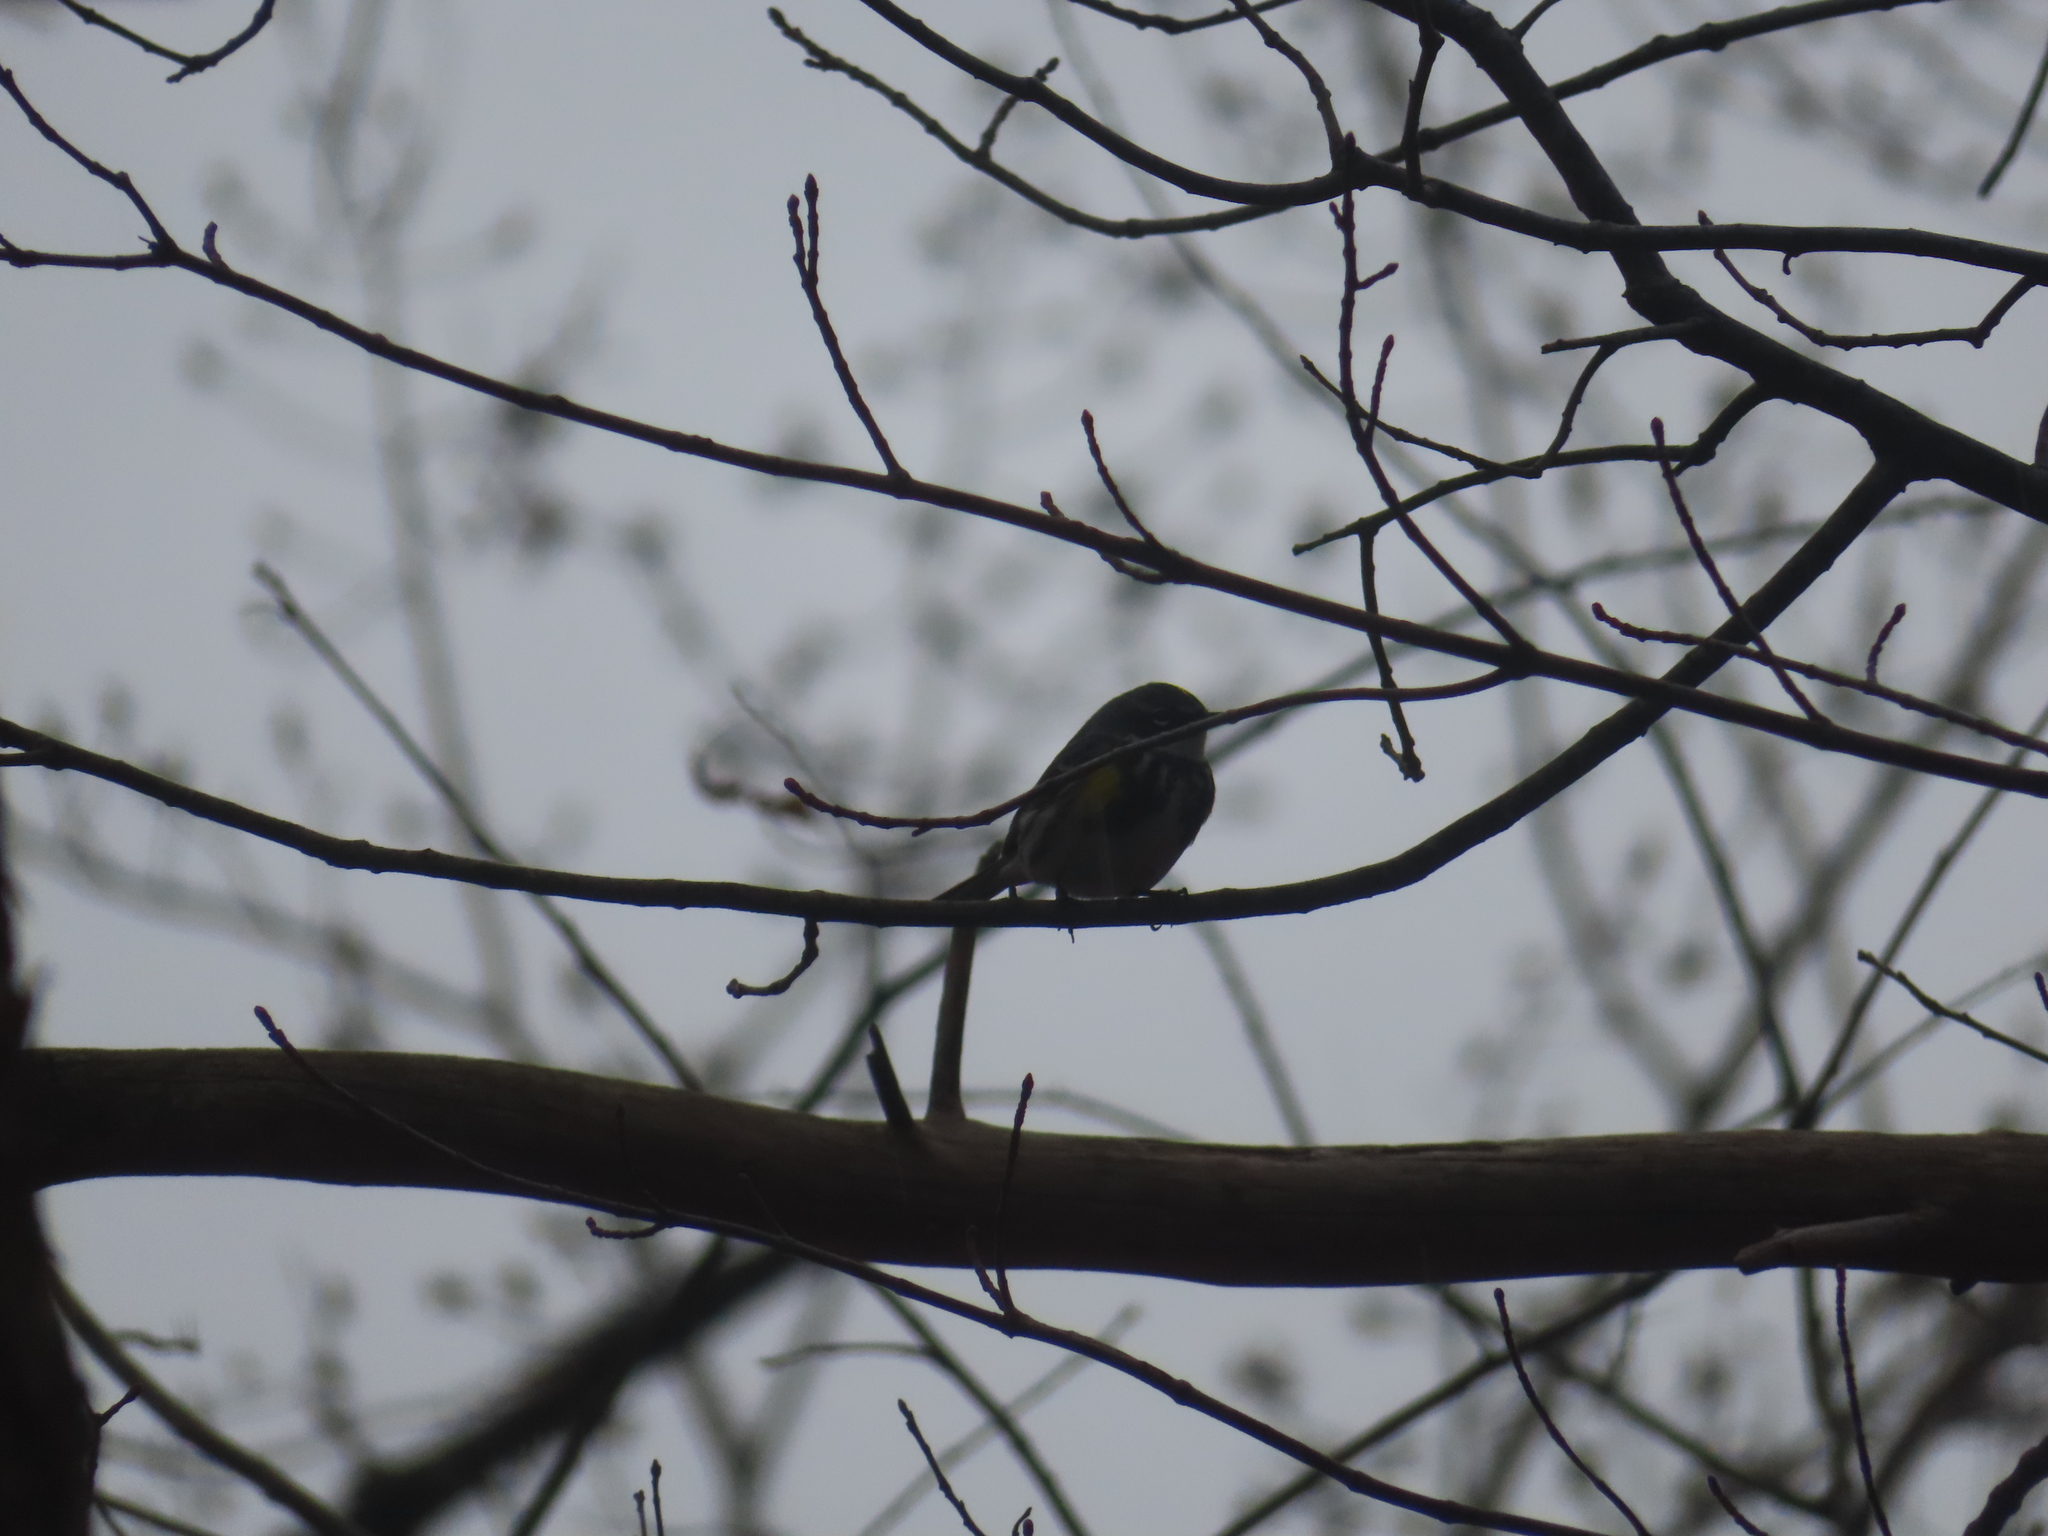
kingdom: Animalia
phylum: Chordata
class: Aves
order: Passeriformes
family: Parulidae
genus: Setophaga
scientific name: Setophaga coronata
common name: Myrtle warbler
